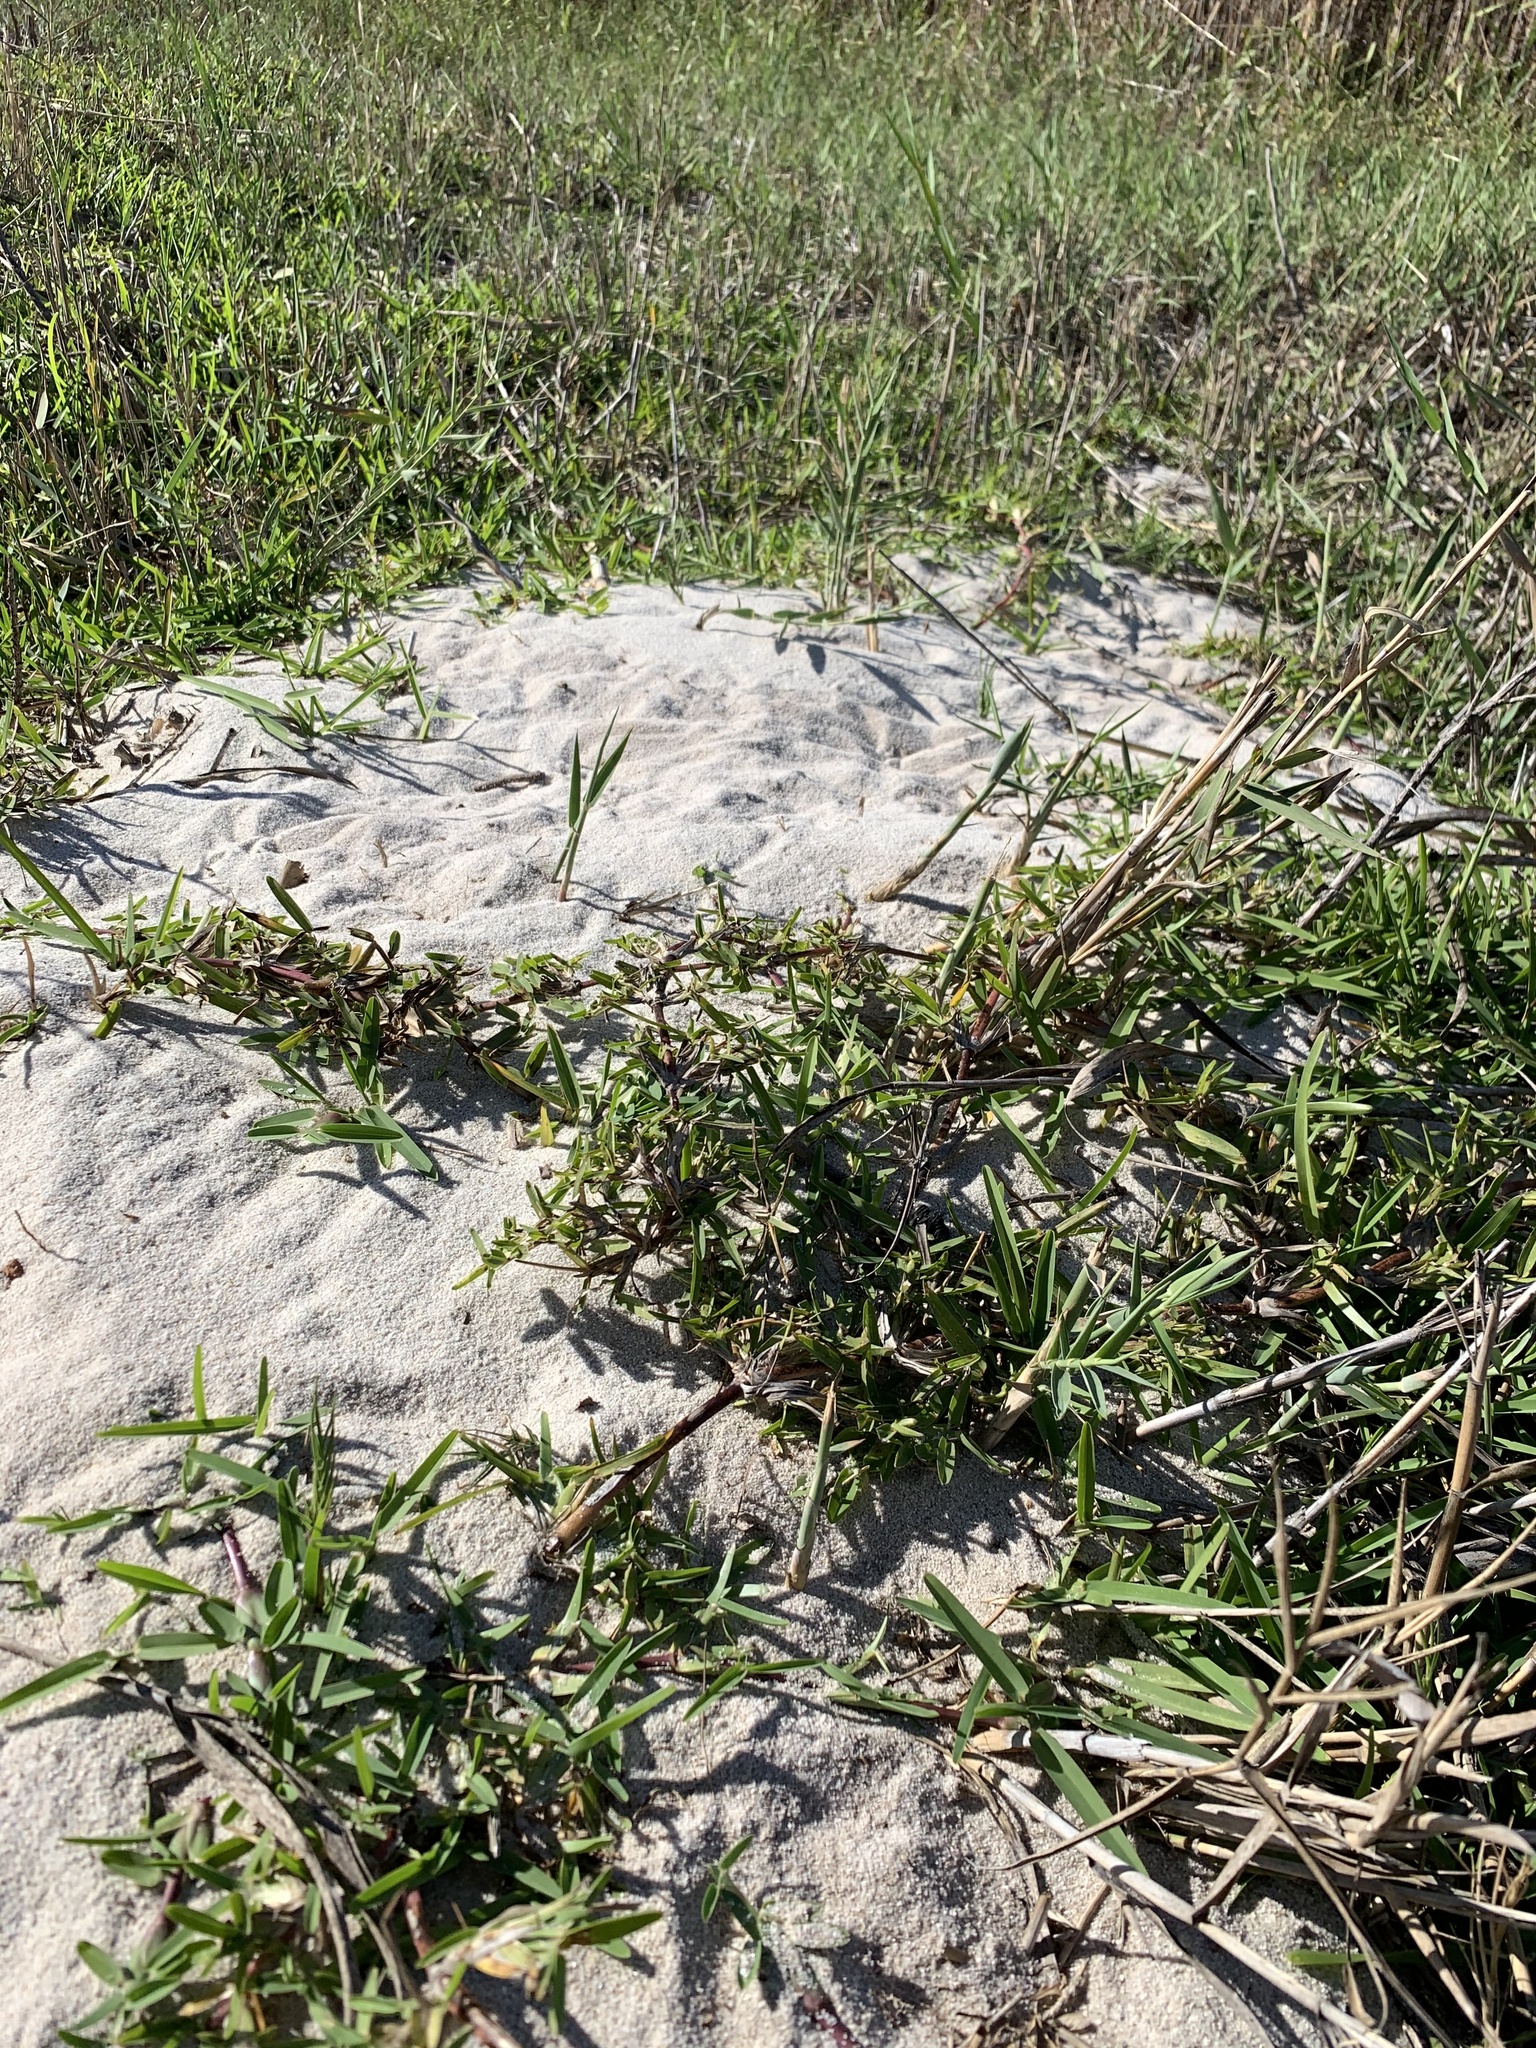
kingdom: Plantae
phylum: Tracheophyta
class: Liliopsida
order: Poales
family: Poaceae
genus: Stenotaphrum
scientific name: Stenotaphrum secundatum
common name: St. augustine grass
